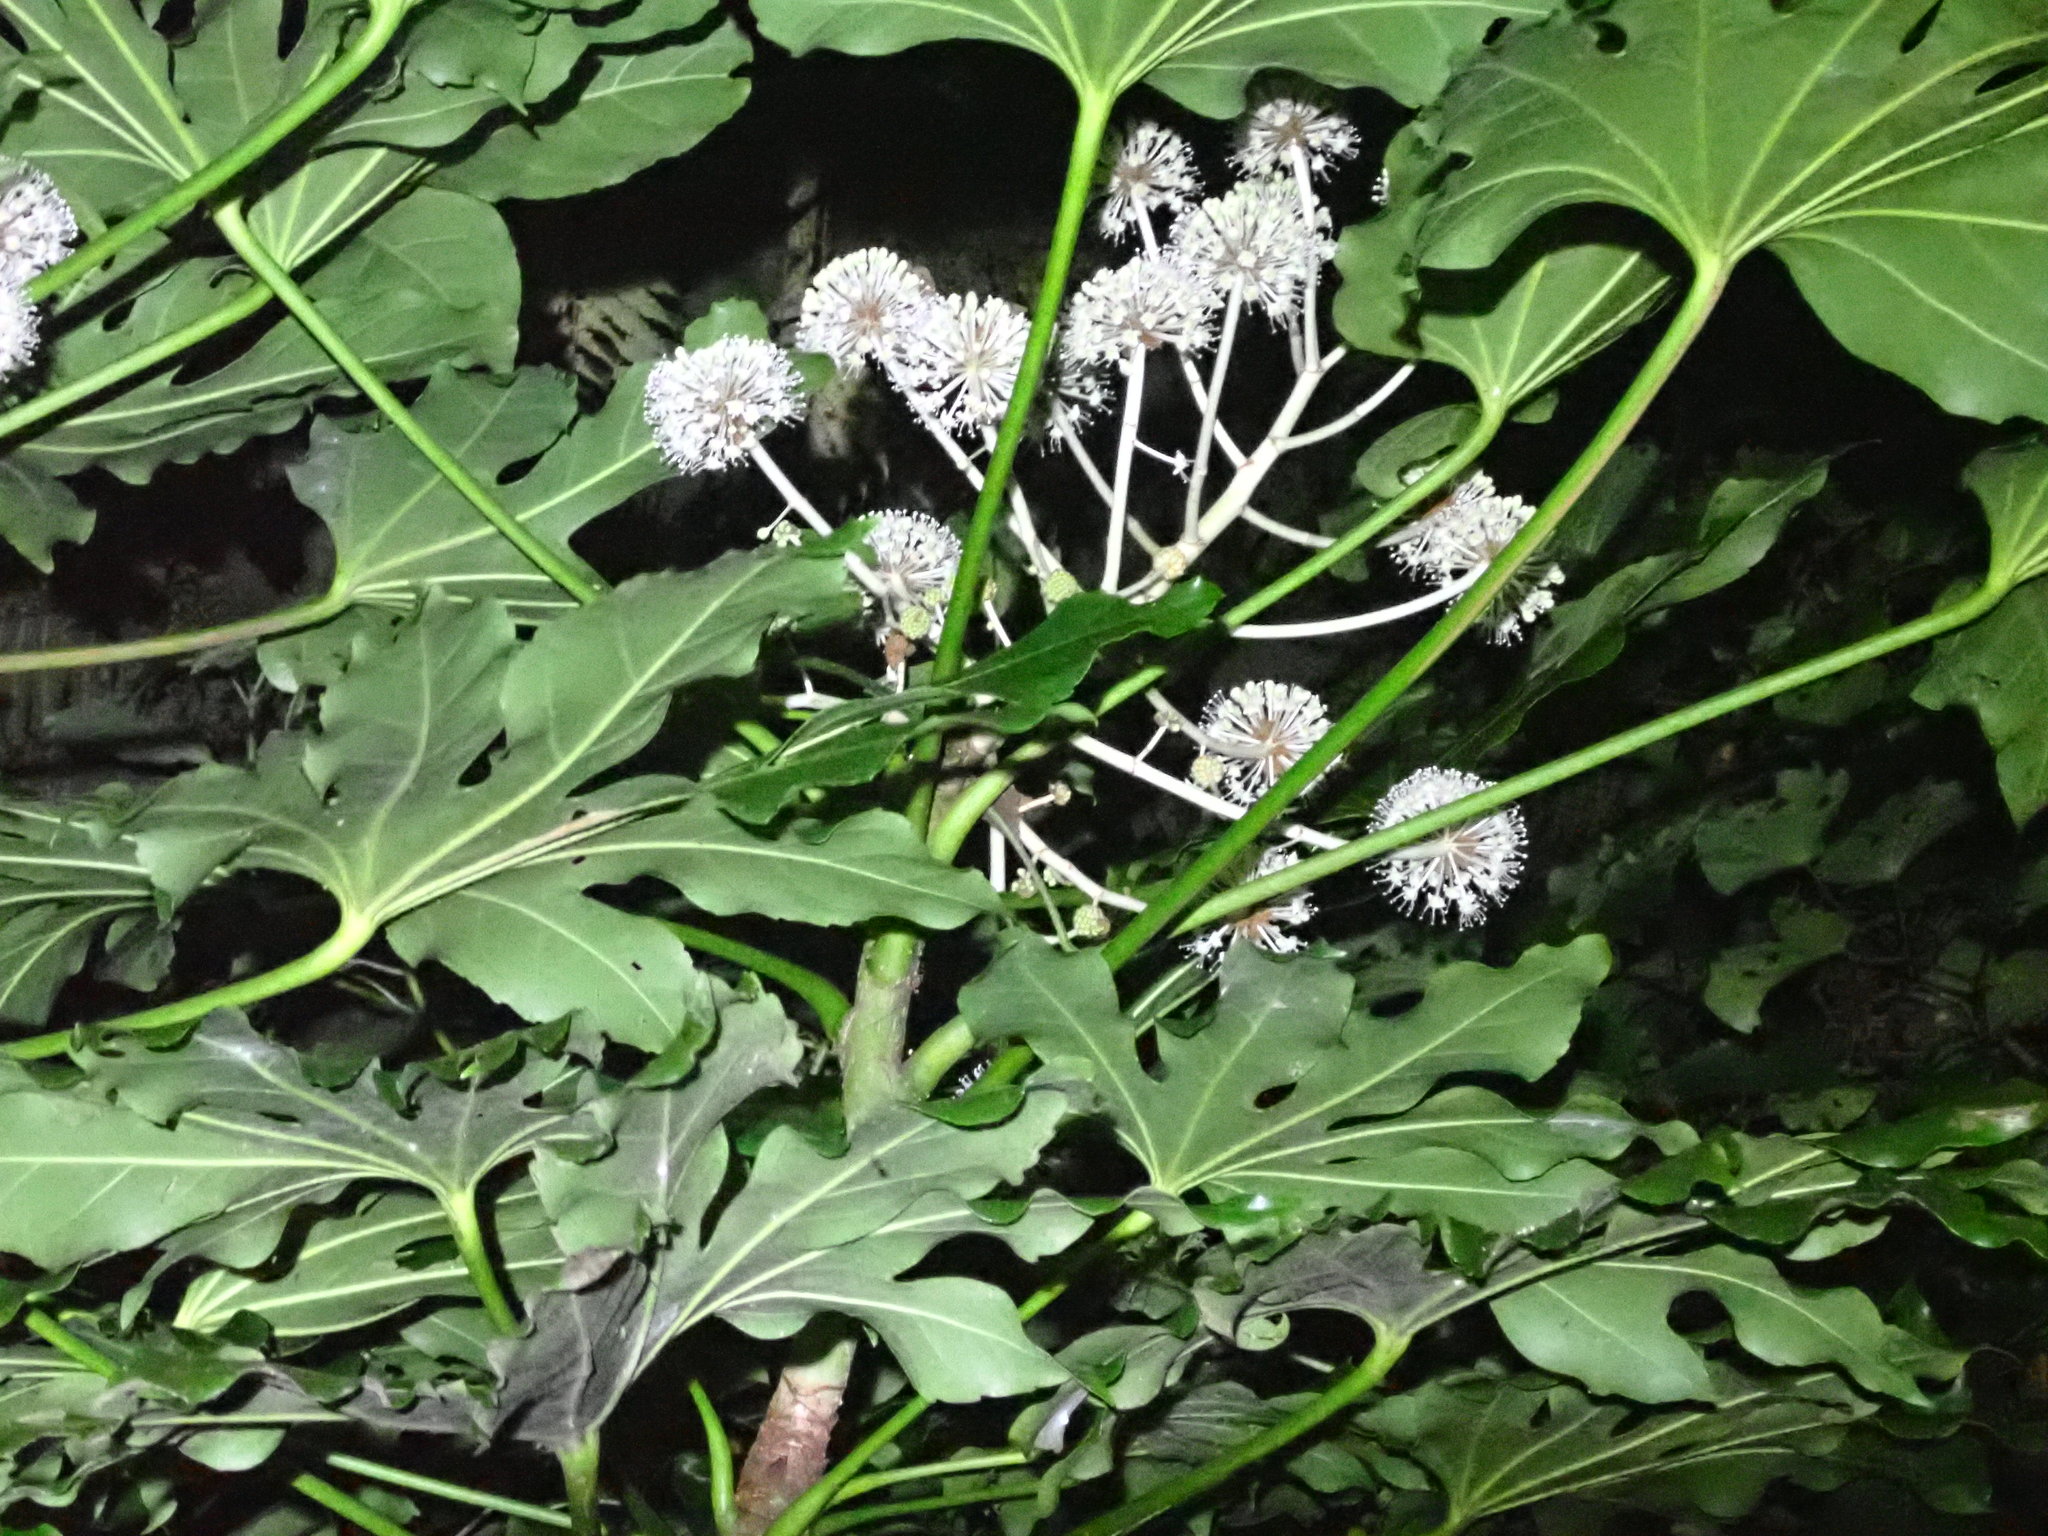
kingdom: Plantae
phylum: Tracheophyta
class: Magnoliopsida
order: Apiales
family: Araliaceae
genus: Fatsia
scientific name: Fatsia japonica
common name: Fatsia
